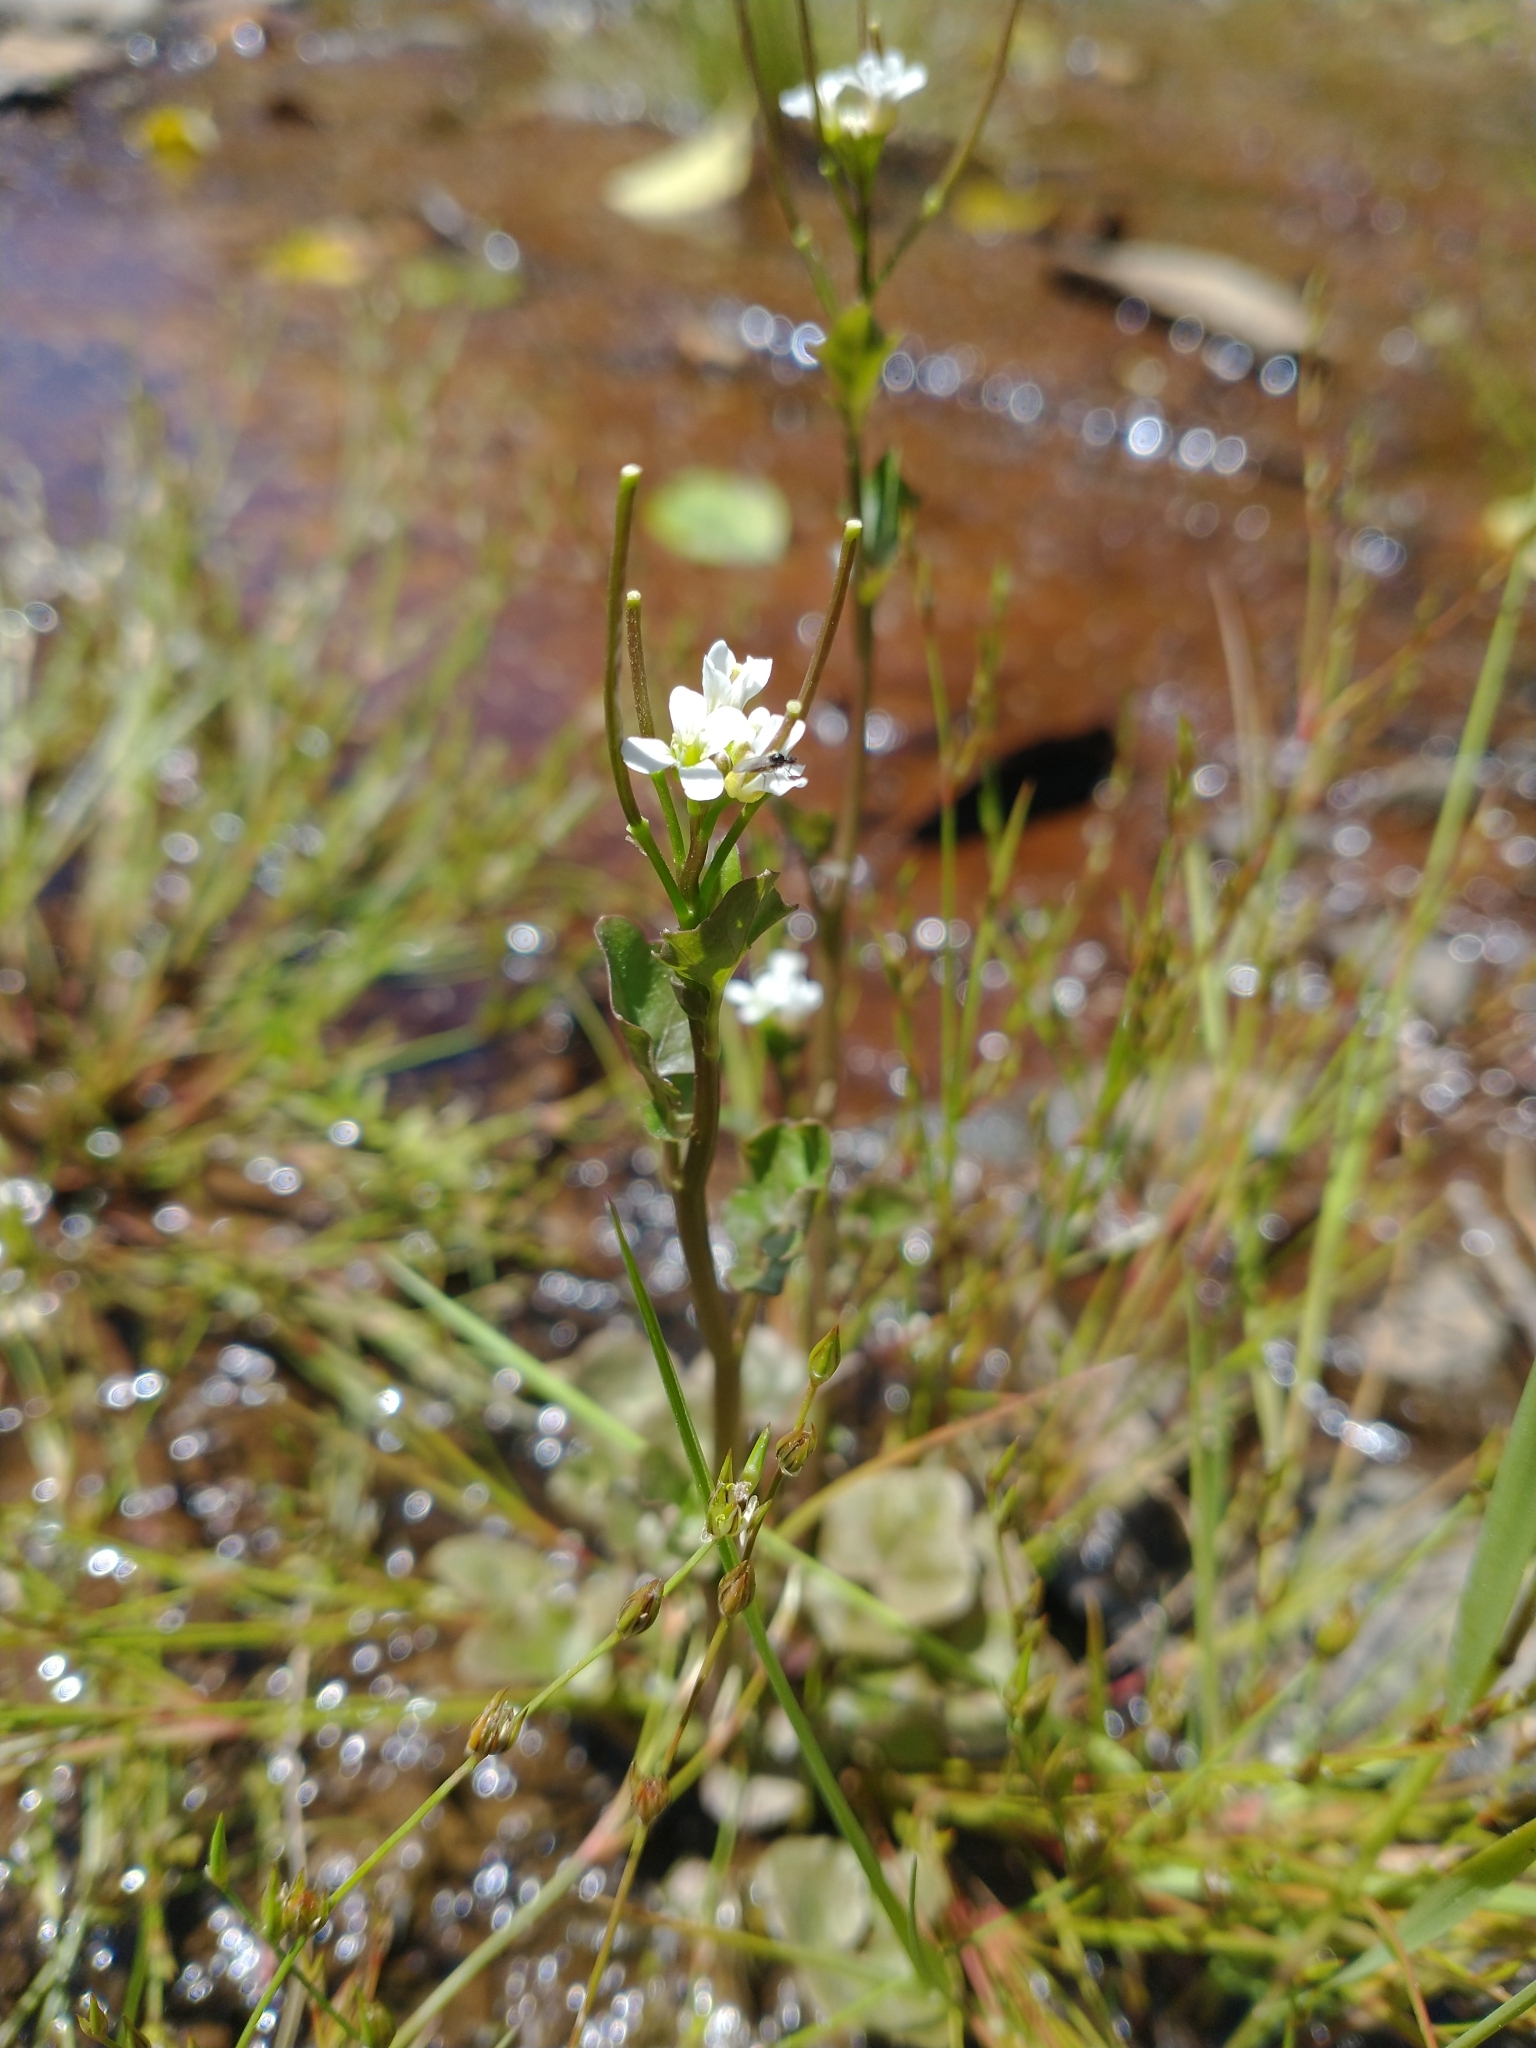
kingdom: Plantae
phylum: Tracheophyta
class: Magnoliopsida
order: Brassicales
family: Brassicaceae
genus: Cardamine
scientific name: Cardamine breweri
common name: Brewer's bittercress
